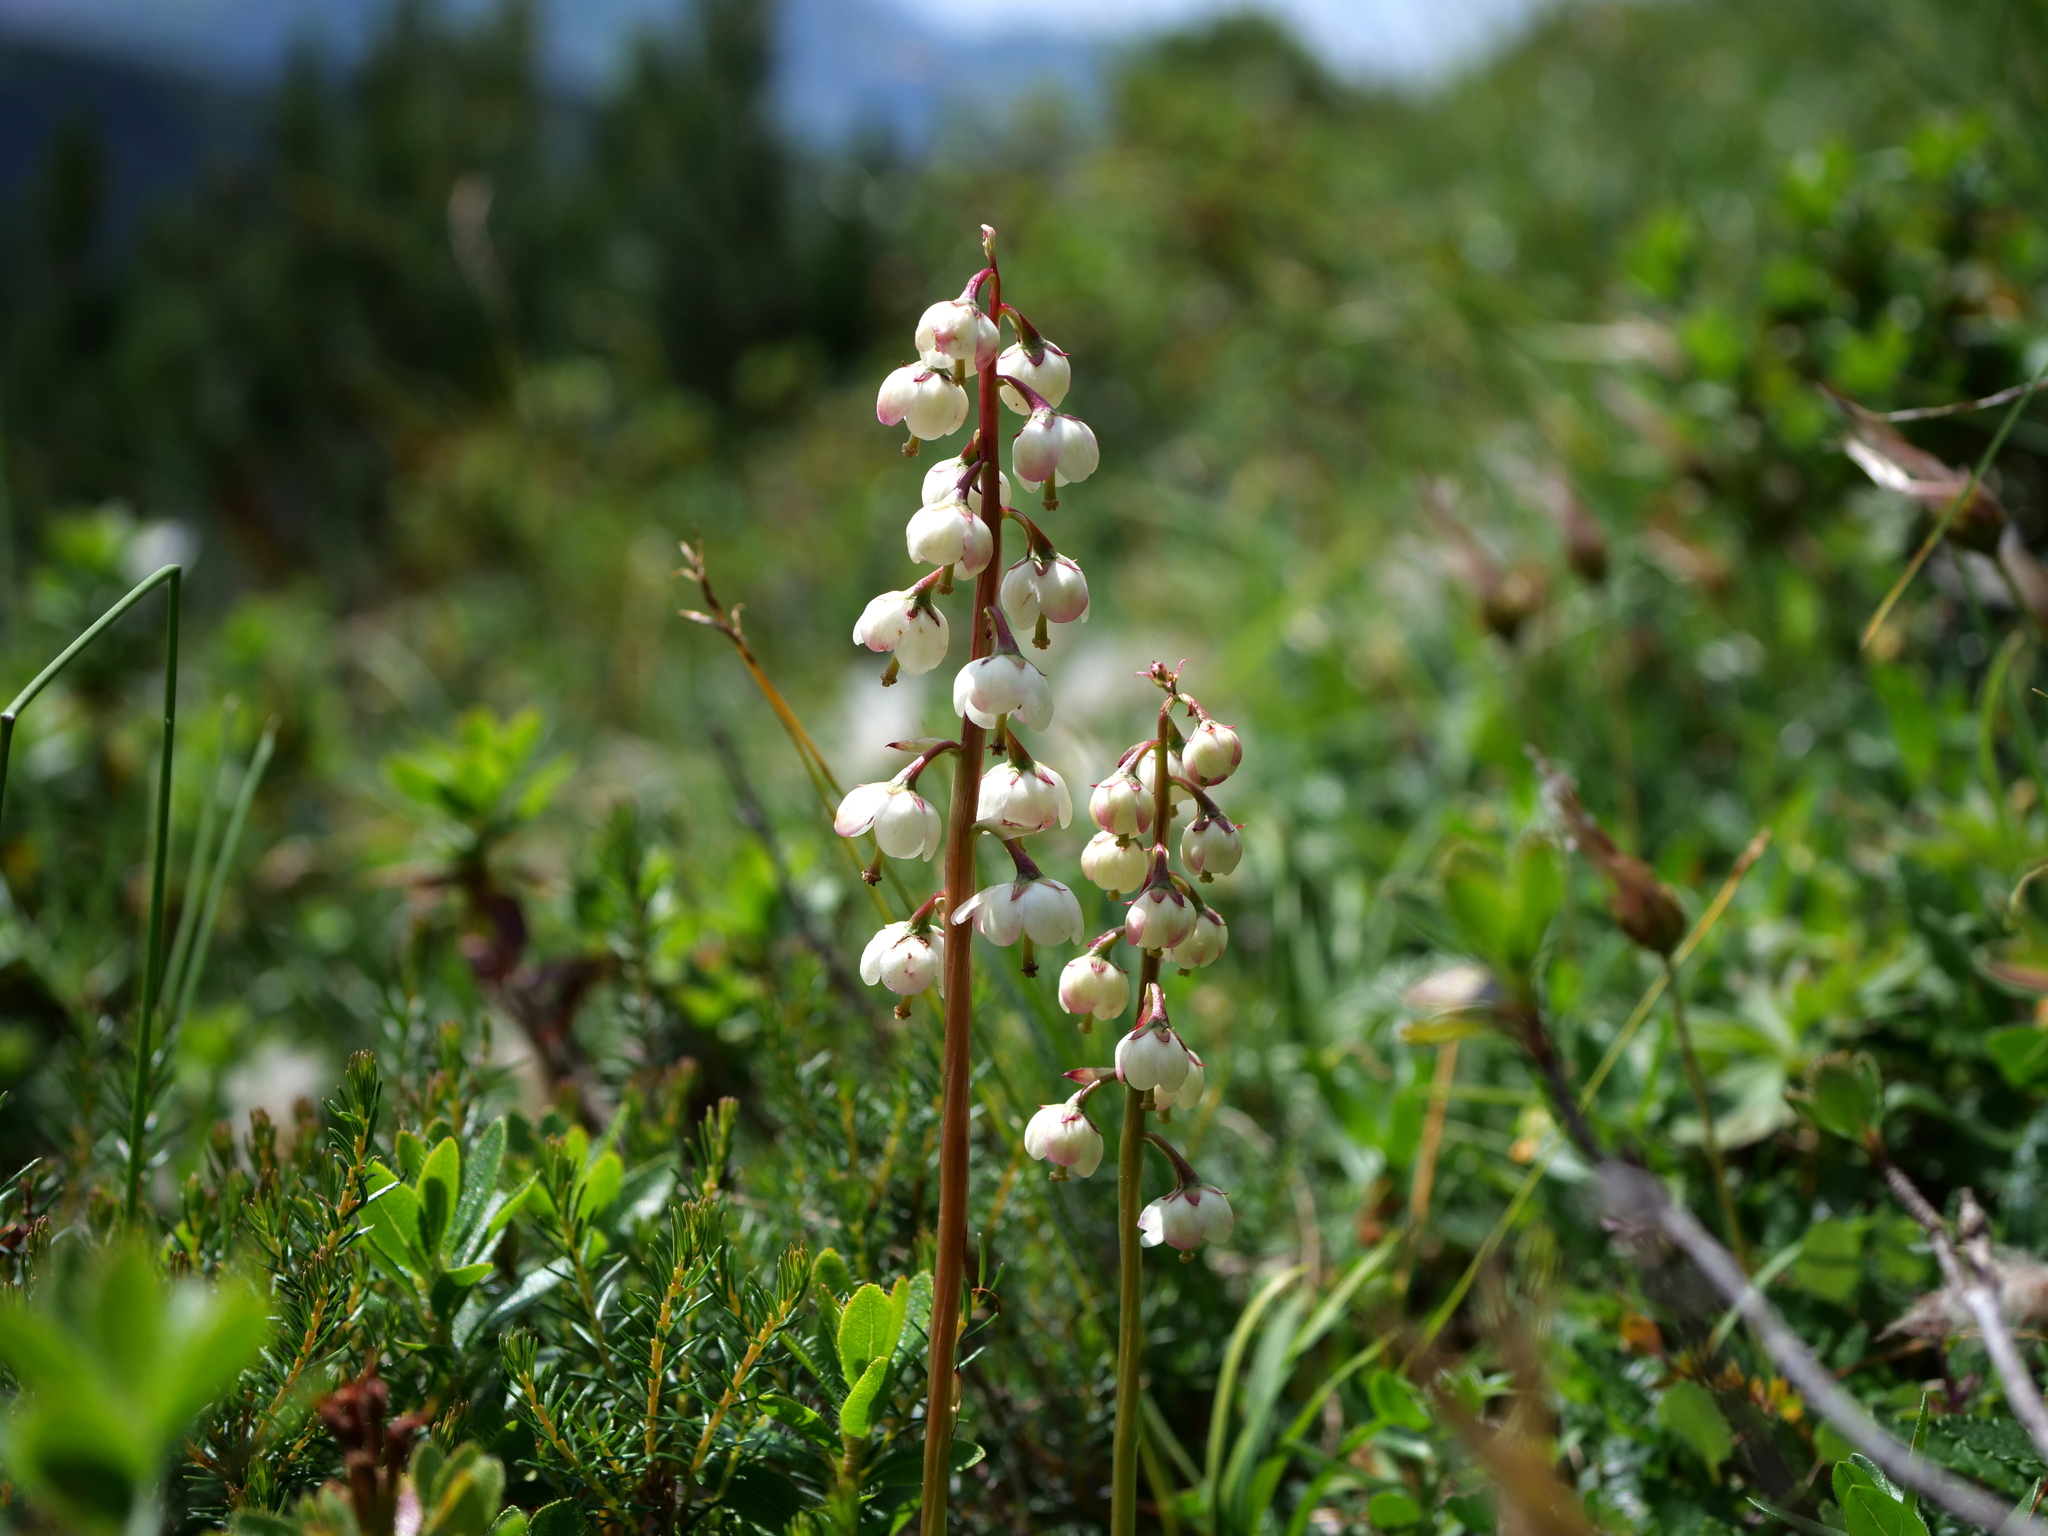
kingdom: Plantae
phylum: Tracheophyta
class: Magnoliopsida
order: Ericales
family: Ericaceae
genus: Pyrola
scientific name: Pyrola media
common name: Intermediate wintergreen
